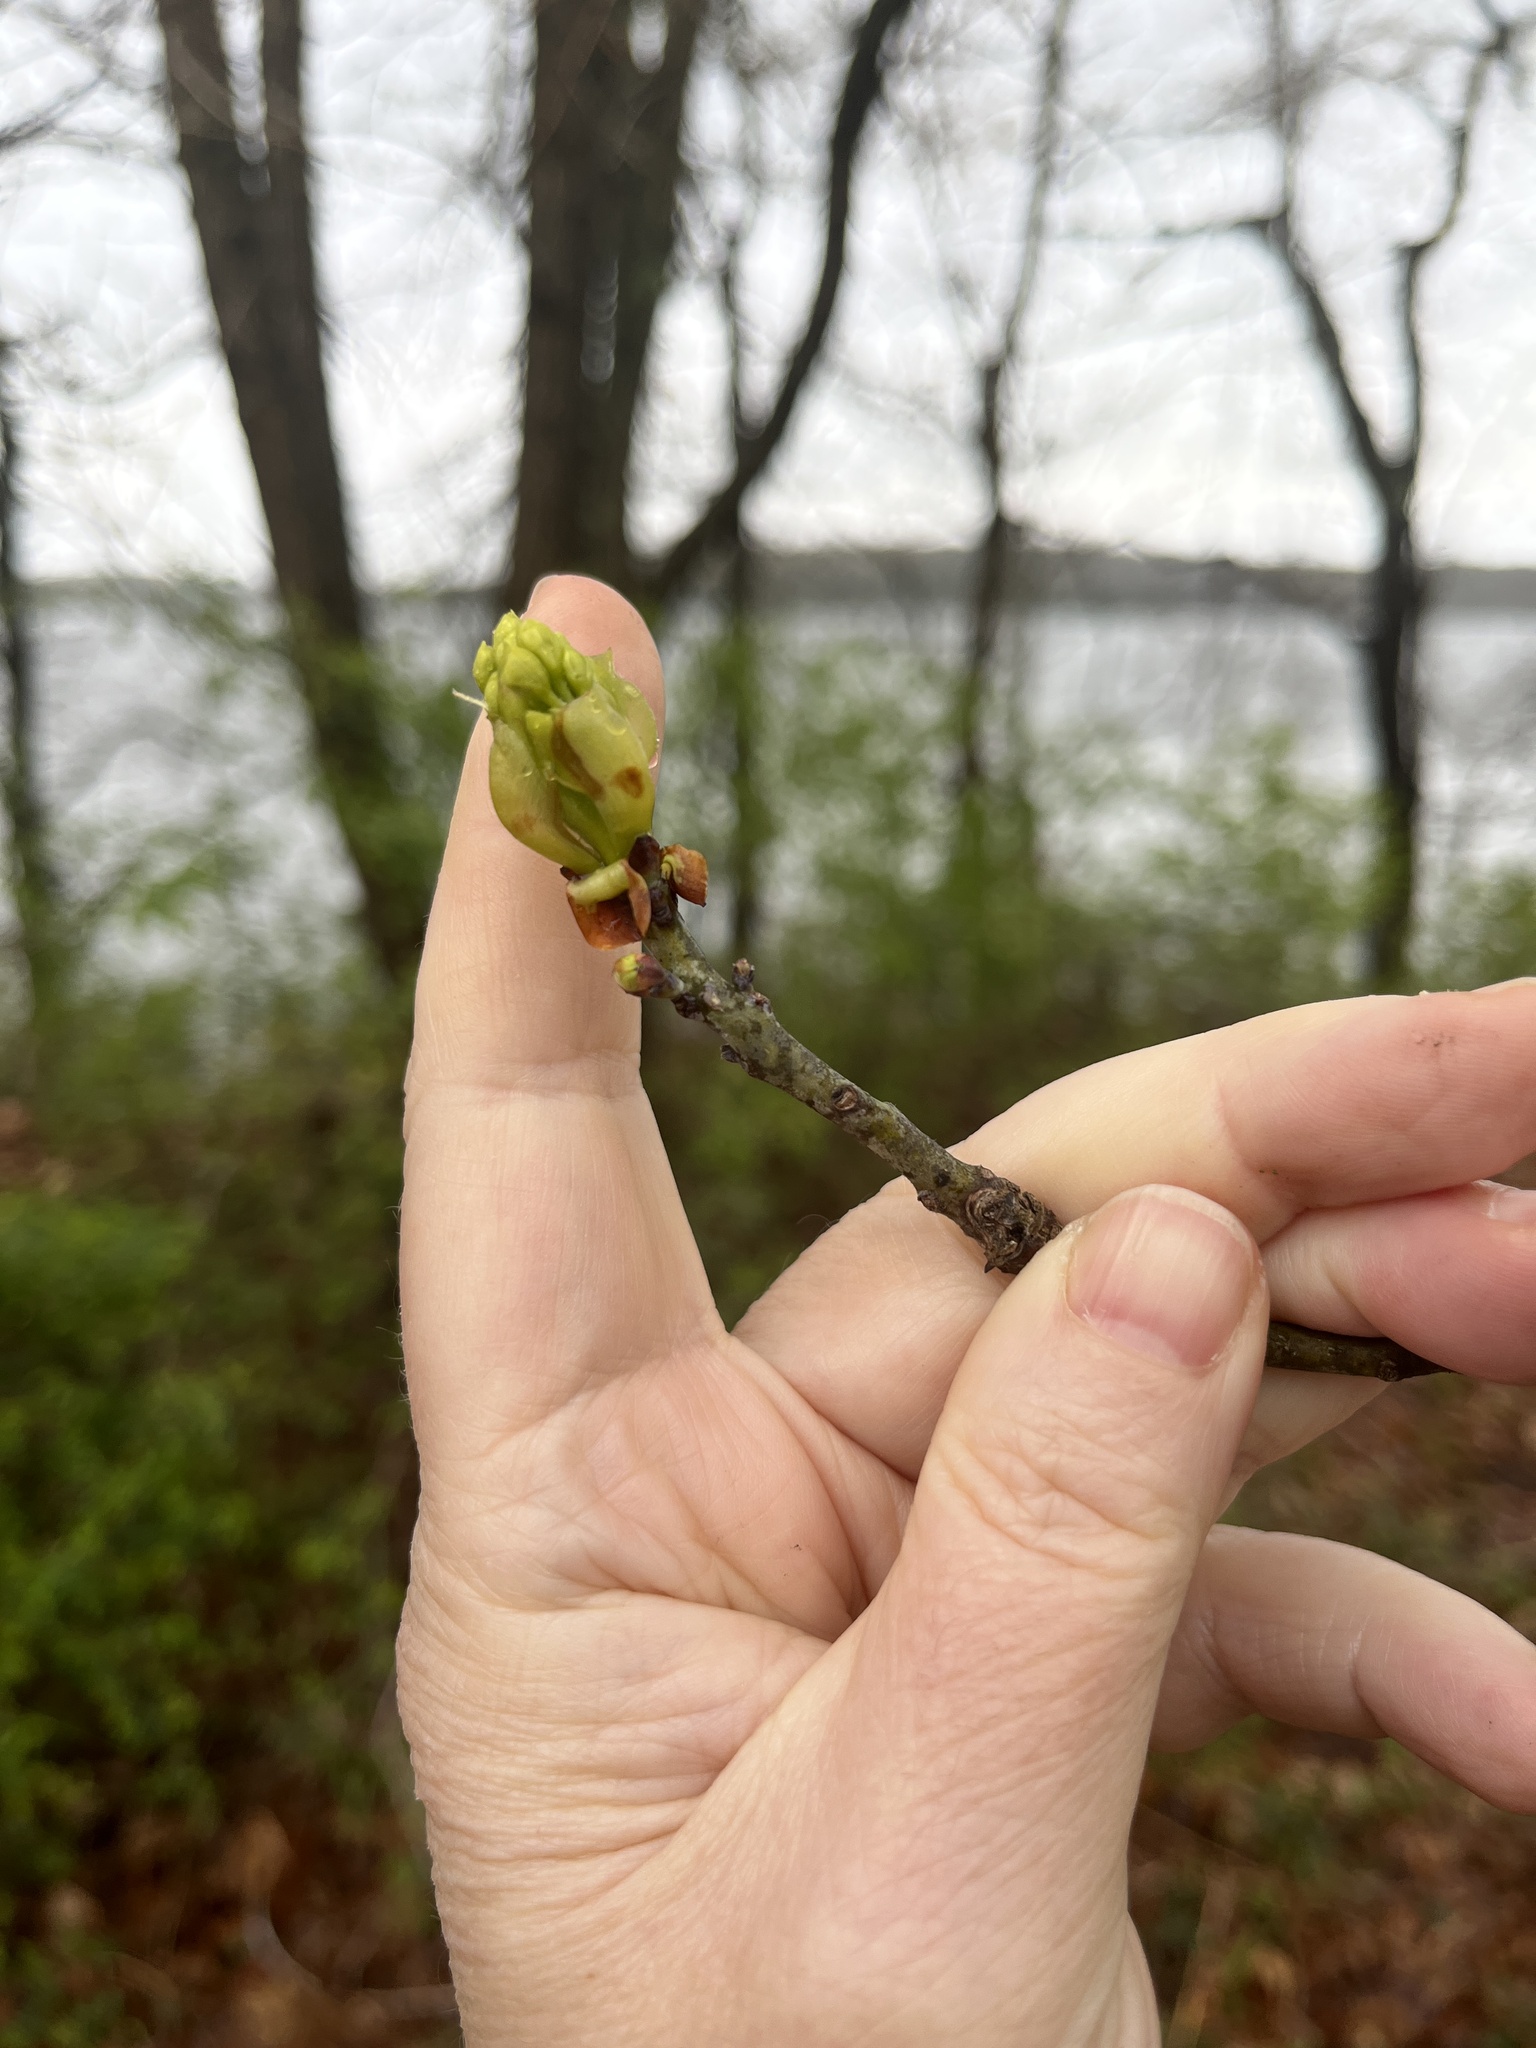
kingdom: Plantae
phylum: Tracheophyta
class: Magnoliopsida
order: Laurales
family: Lauraceae
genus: Sassafras
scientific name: Sassafras albidum
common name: Sassafras
